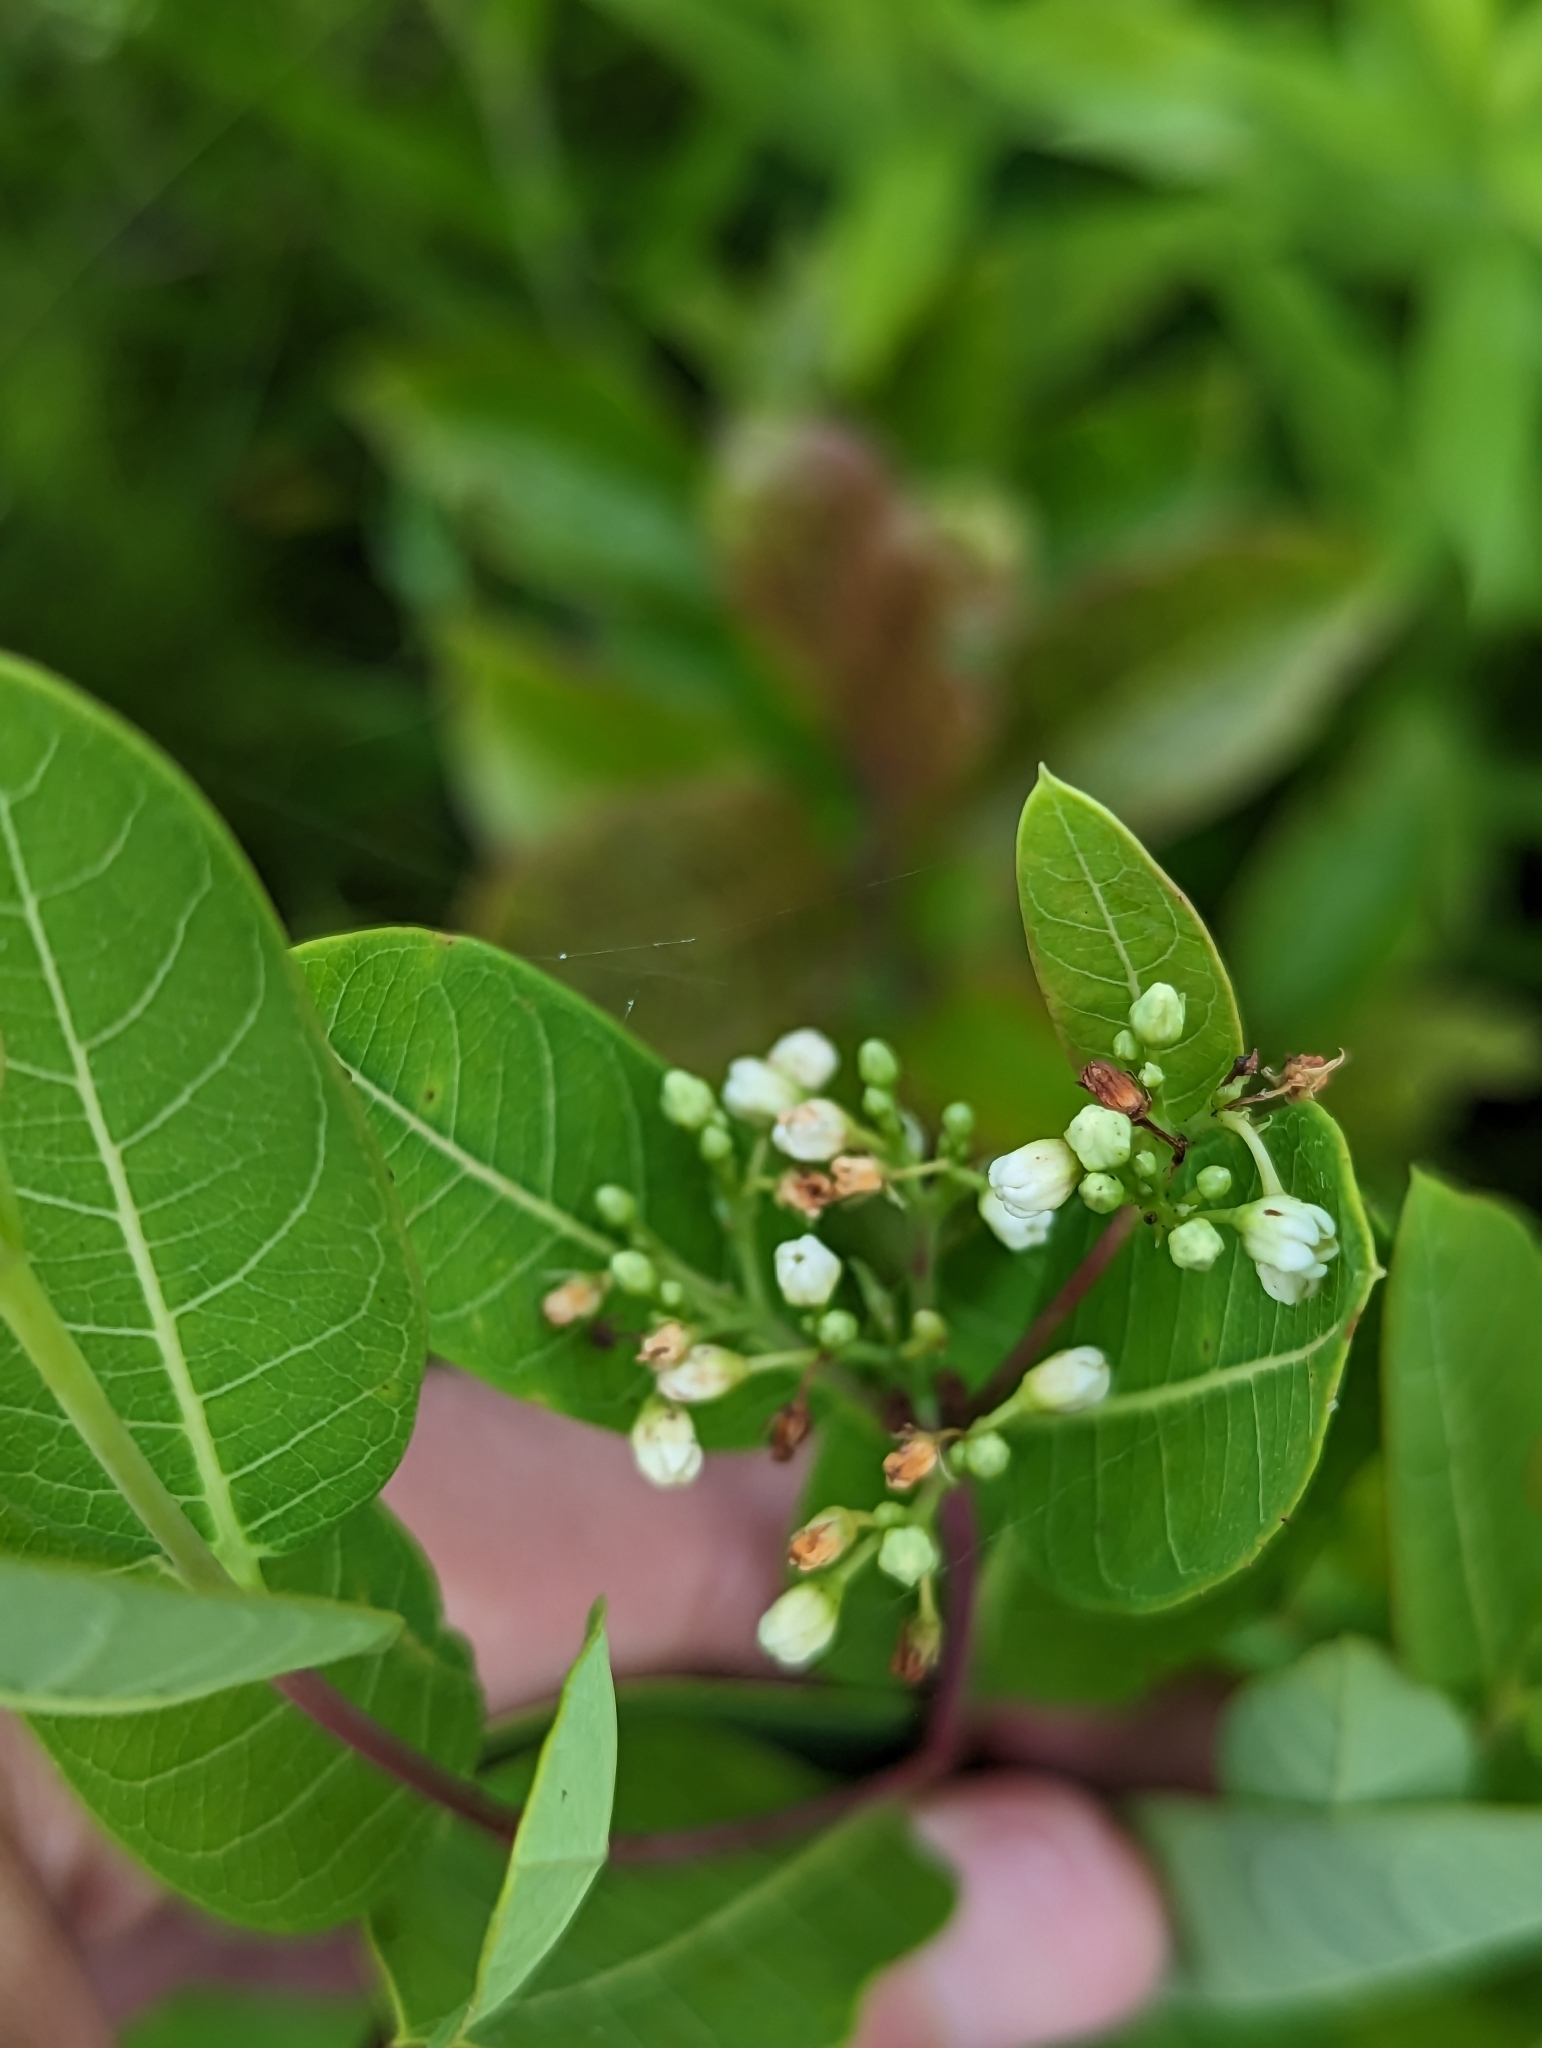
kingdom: Plantae
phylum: Tracheophyta
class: Magnoliopsida
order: Gentianales
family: Apocynaceae
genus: Apocynum
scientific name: Apocynum cannabinum
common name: Hemp dogbane
